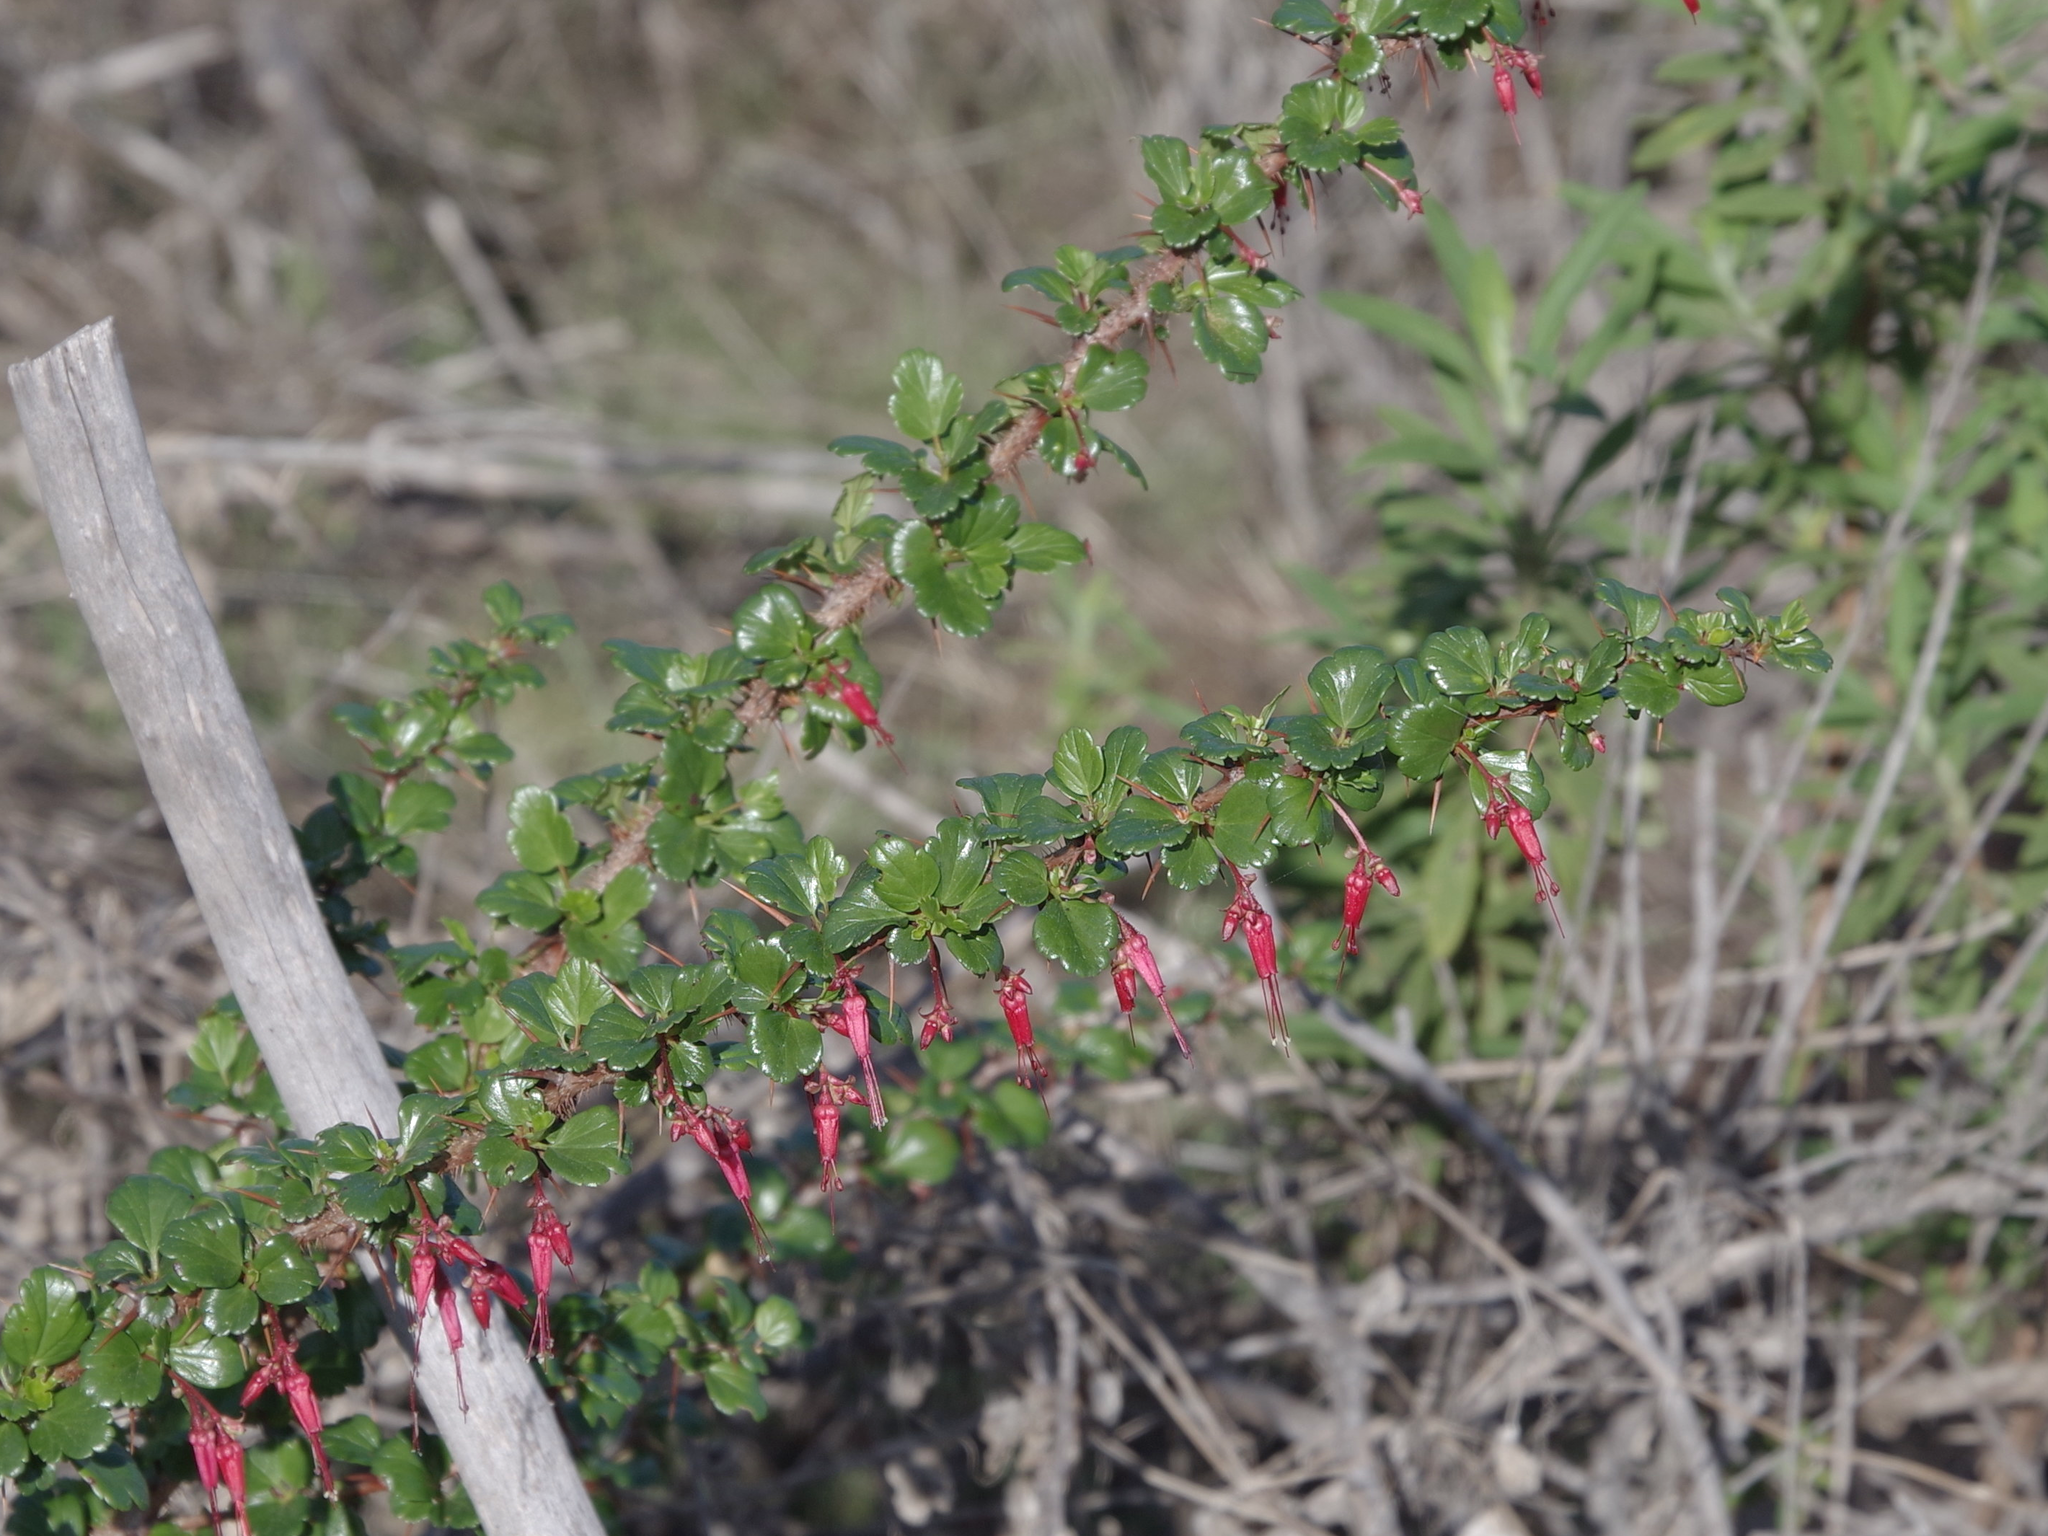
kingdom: Plantae
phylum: Tracheophyta
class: Magnoliopsida
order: Saxifragales
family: Grossulariaceae
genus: Ribes
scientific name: Ribes speciosum
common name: Fuchsia-flower gooseberry
